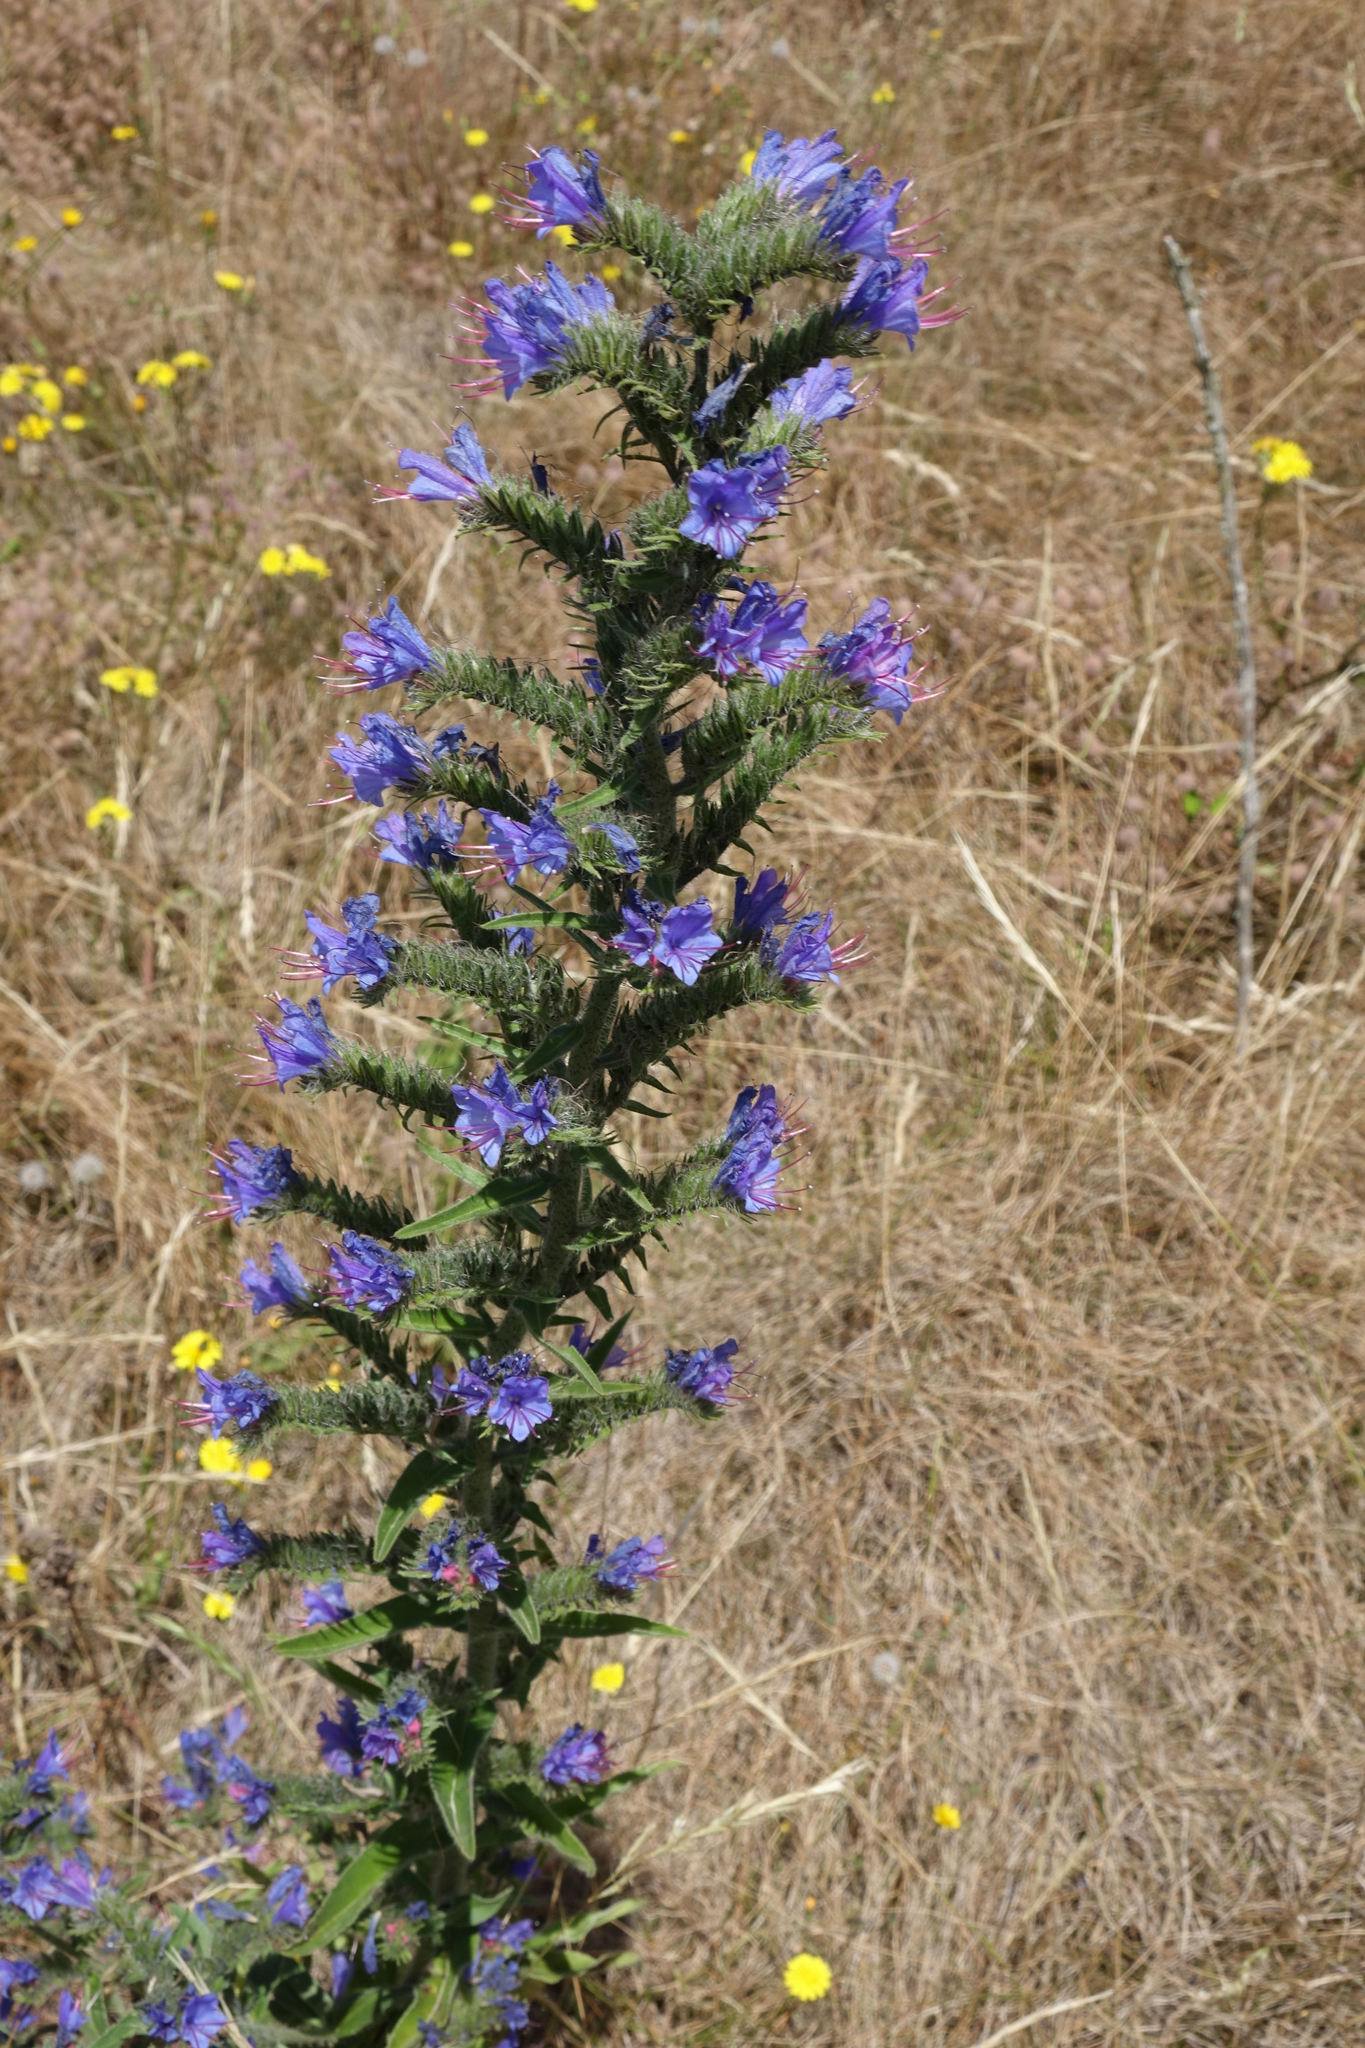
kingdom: Plantae
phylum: Tracheophyta
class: Magnoliopsida
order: Boraginales
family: Boraginaceae
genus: Echium
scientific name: Echium vulgare
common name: Common viper's bugloss
